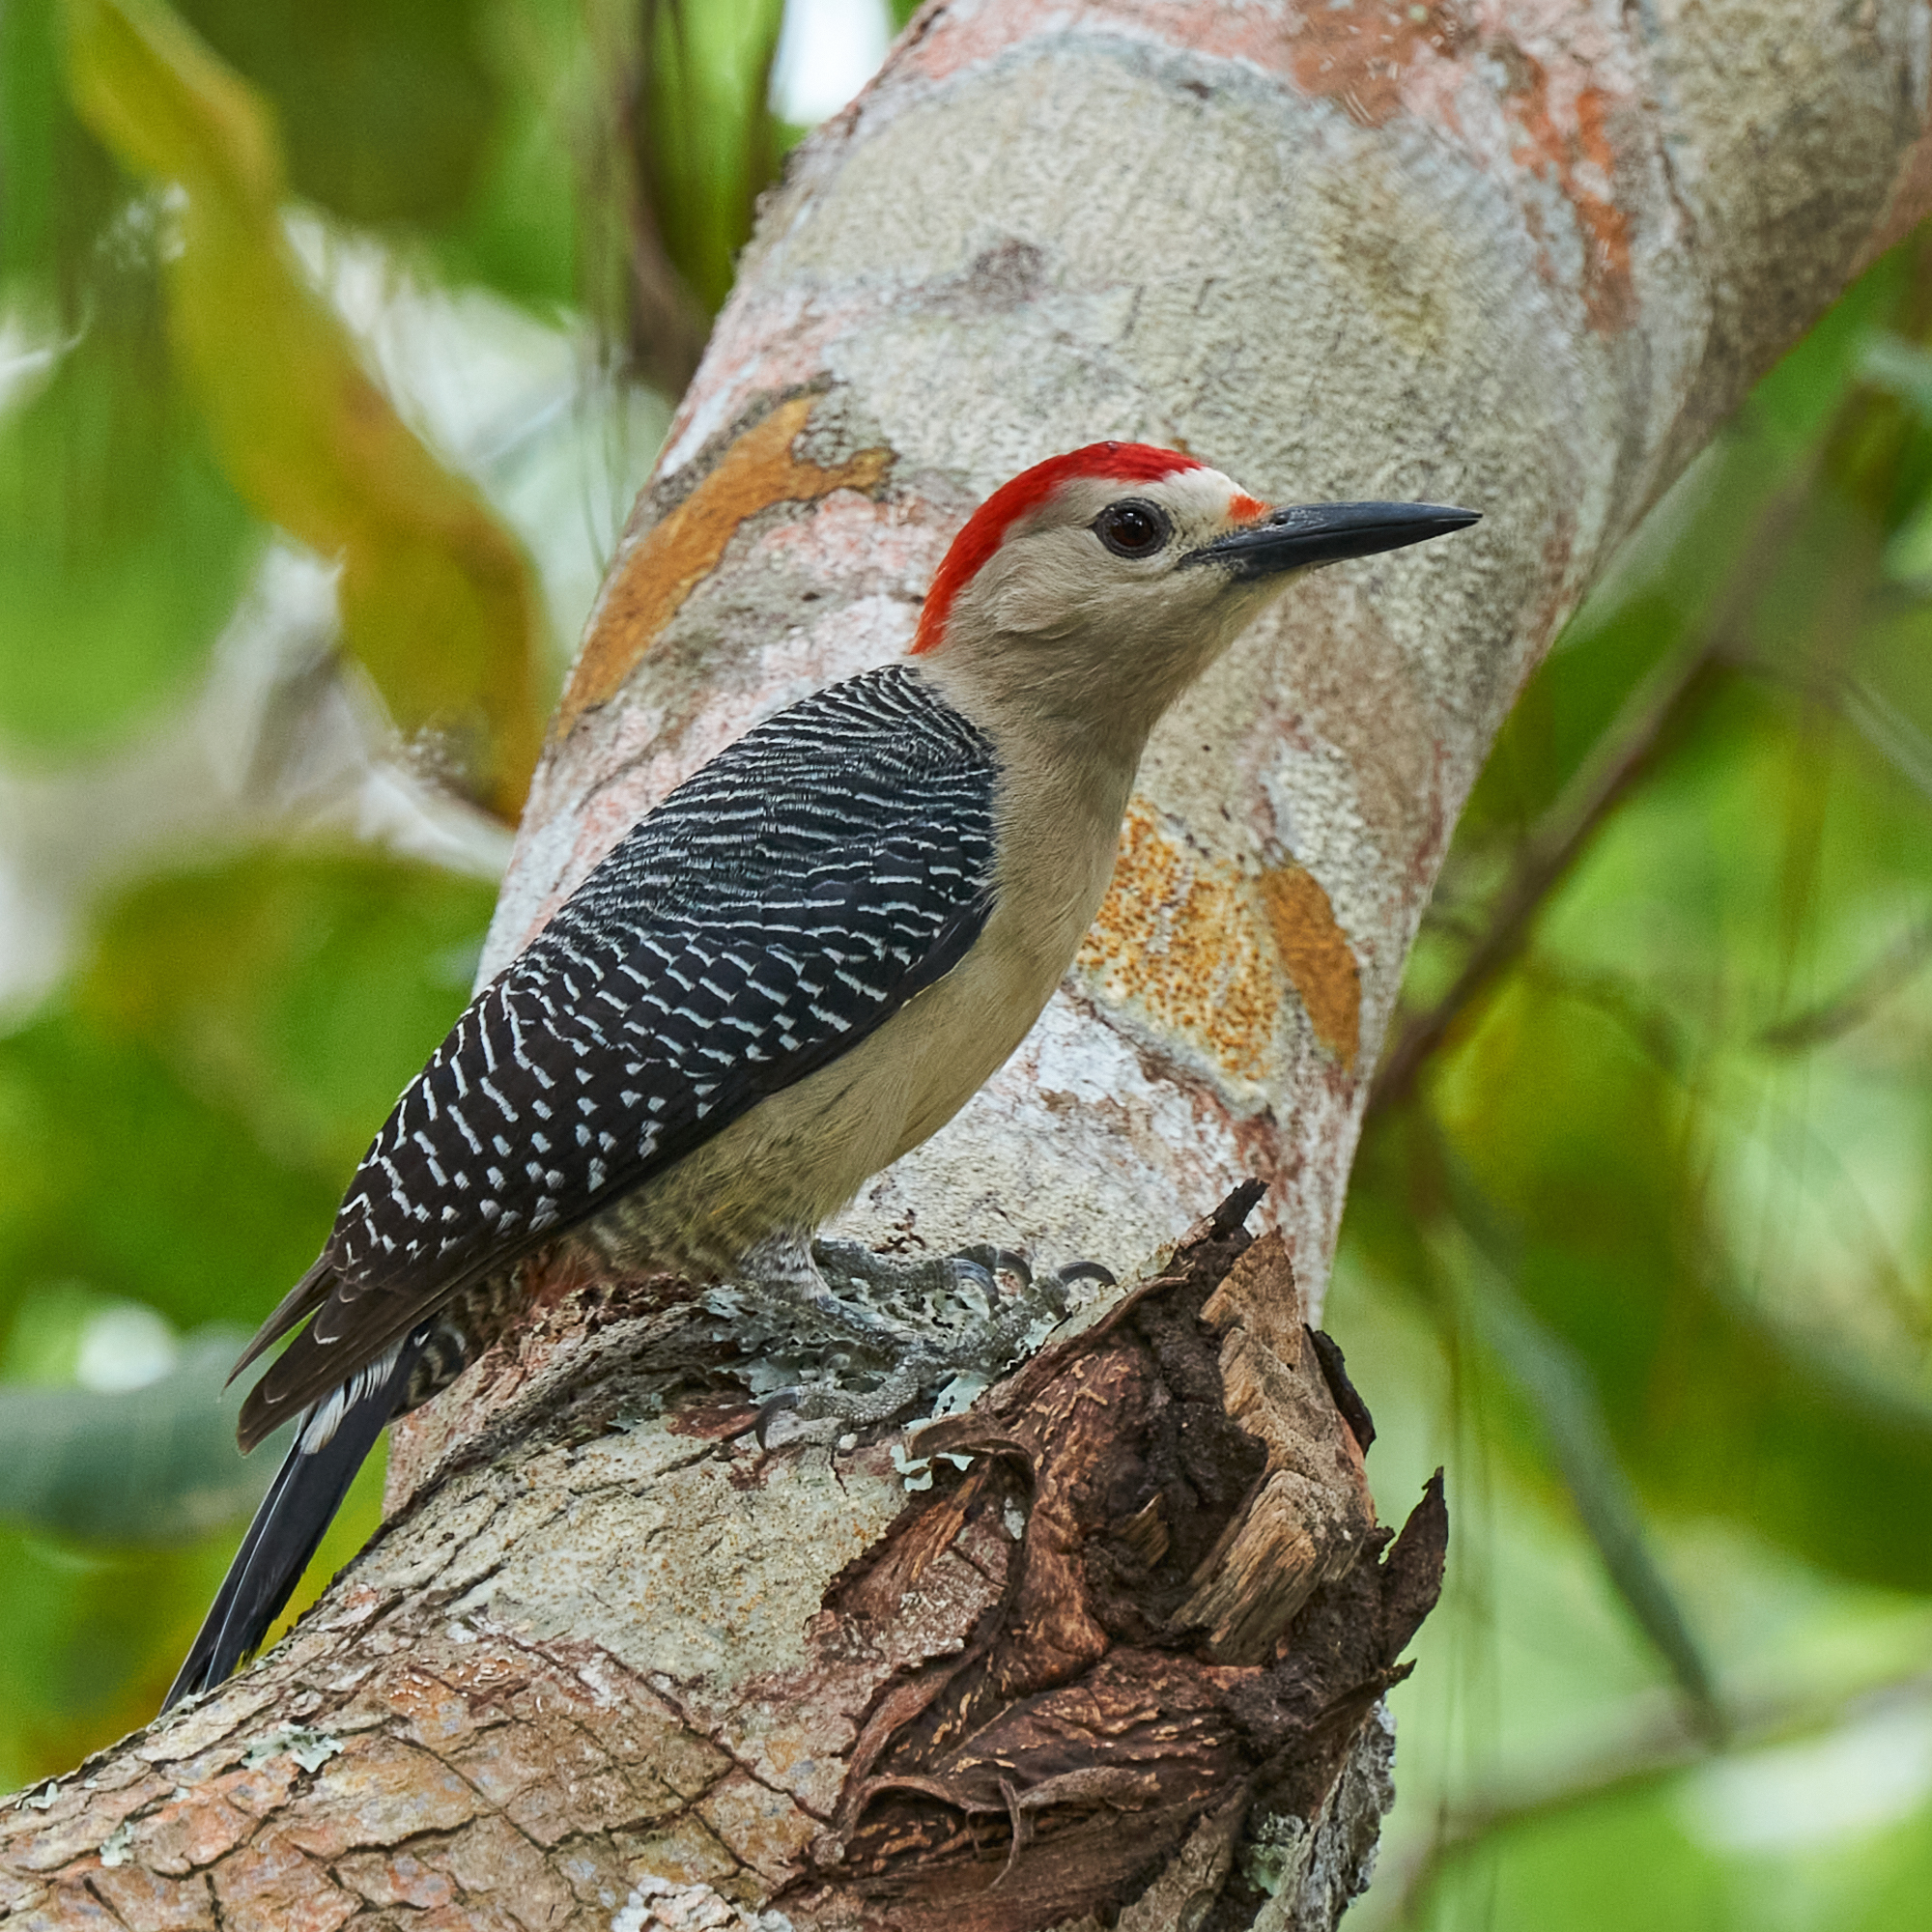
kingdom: Animalia
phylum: Chordata
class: Aves
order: Piciformes
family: Picidae
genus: Melanerpes
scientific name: Melanerpes aurifrons
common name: Golden-fronted woodpecker
